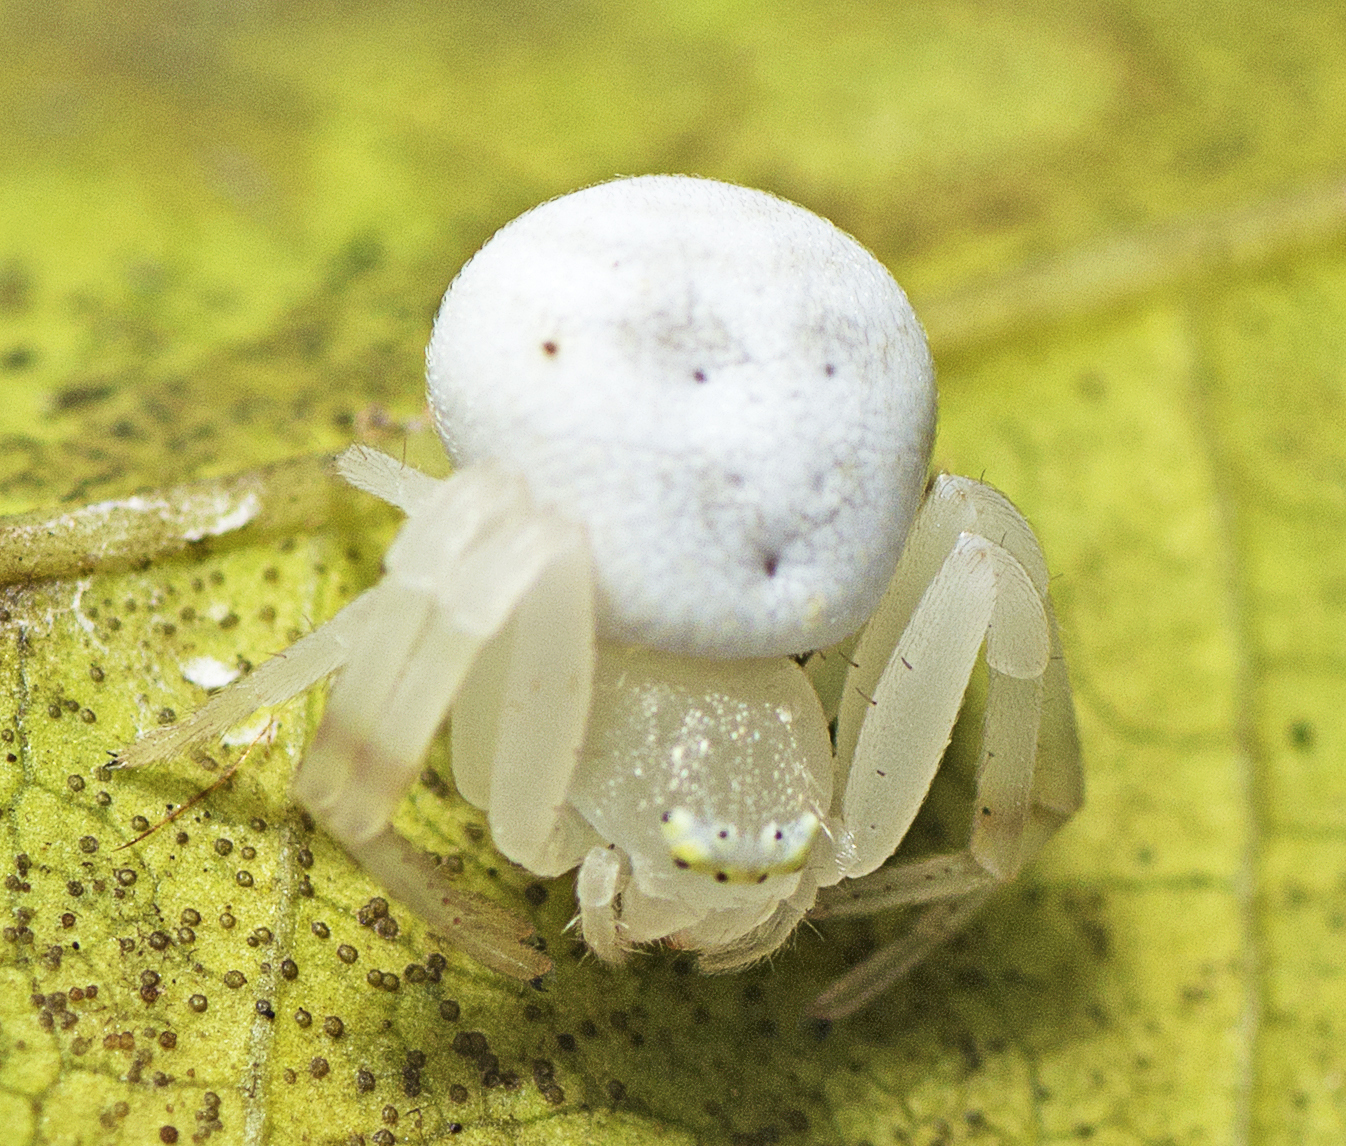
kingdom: Animalia
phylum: Arthropoda
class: Arachnida
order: Araneae
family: Thomisidae
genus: Zygometis
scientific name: Zygometis xanthogaster
